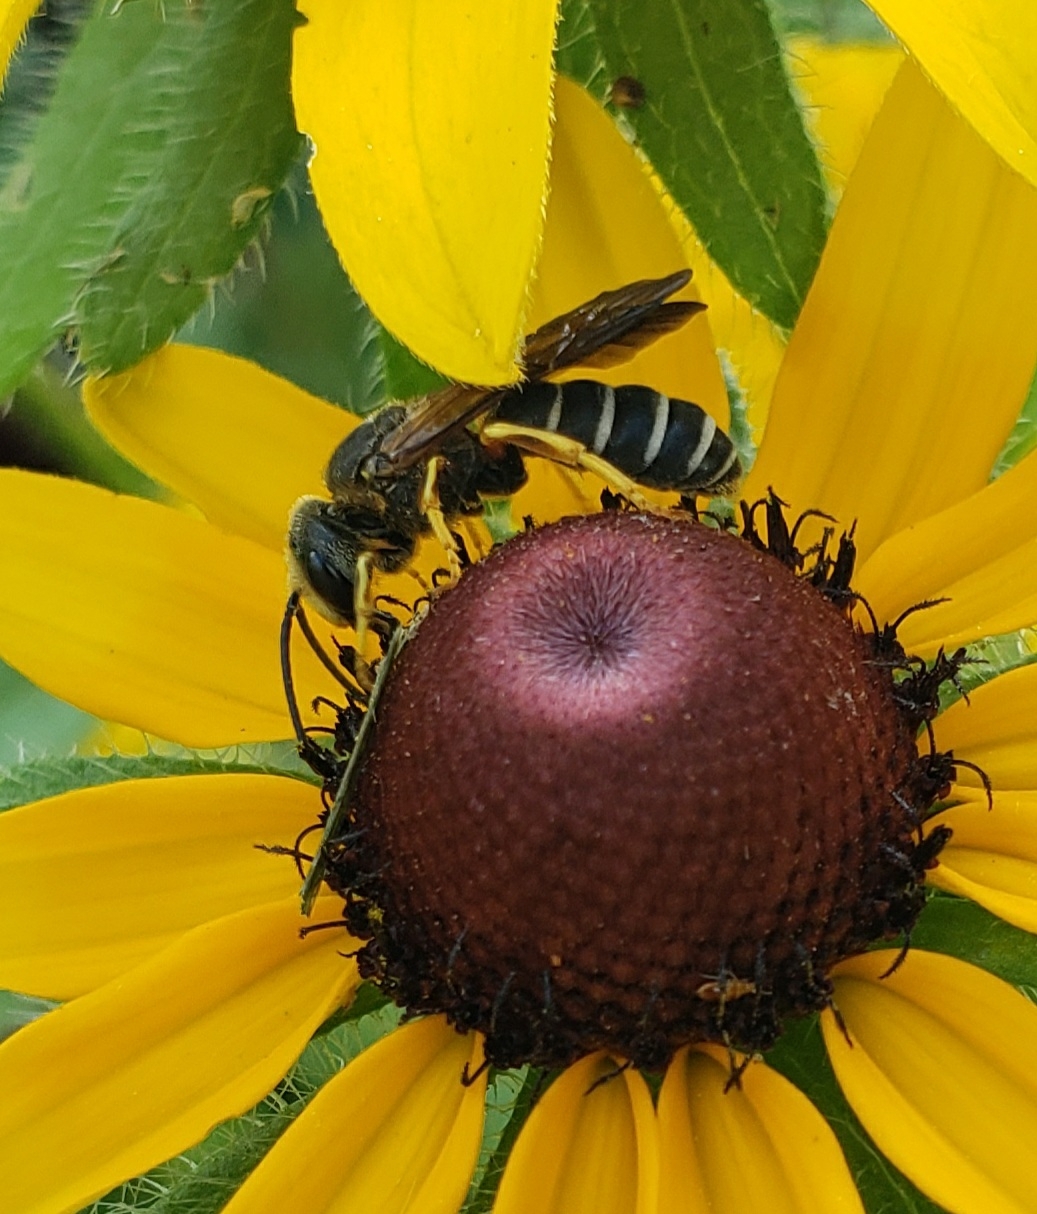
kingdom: Animalia
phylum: Arthropoda
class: Insecta
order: Hymenoptera
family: Halictidae
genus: Halictus
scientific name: Halictus parallelus
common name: Parallel-striped sweat bee
